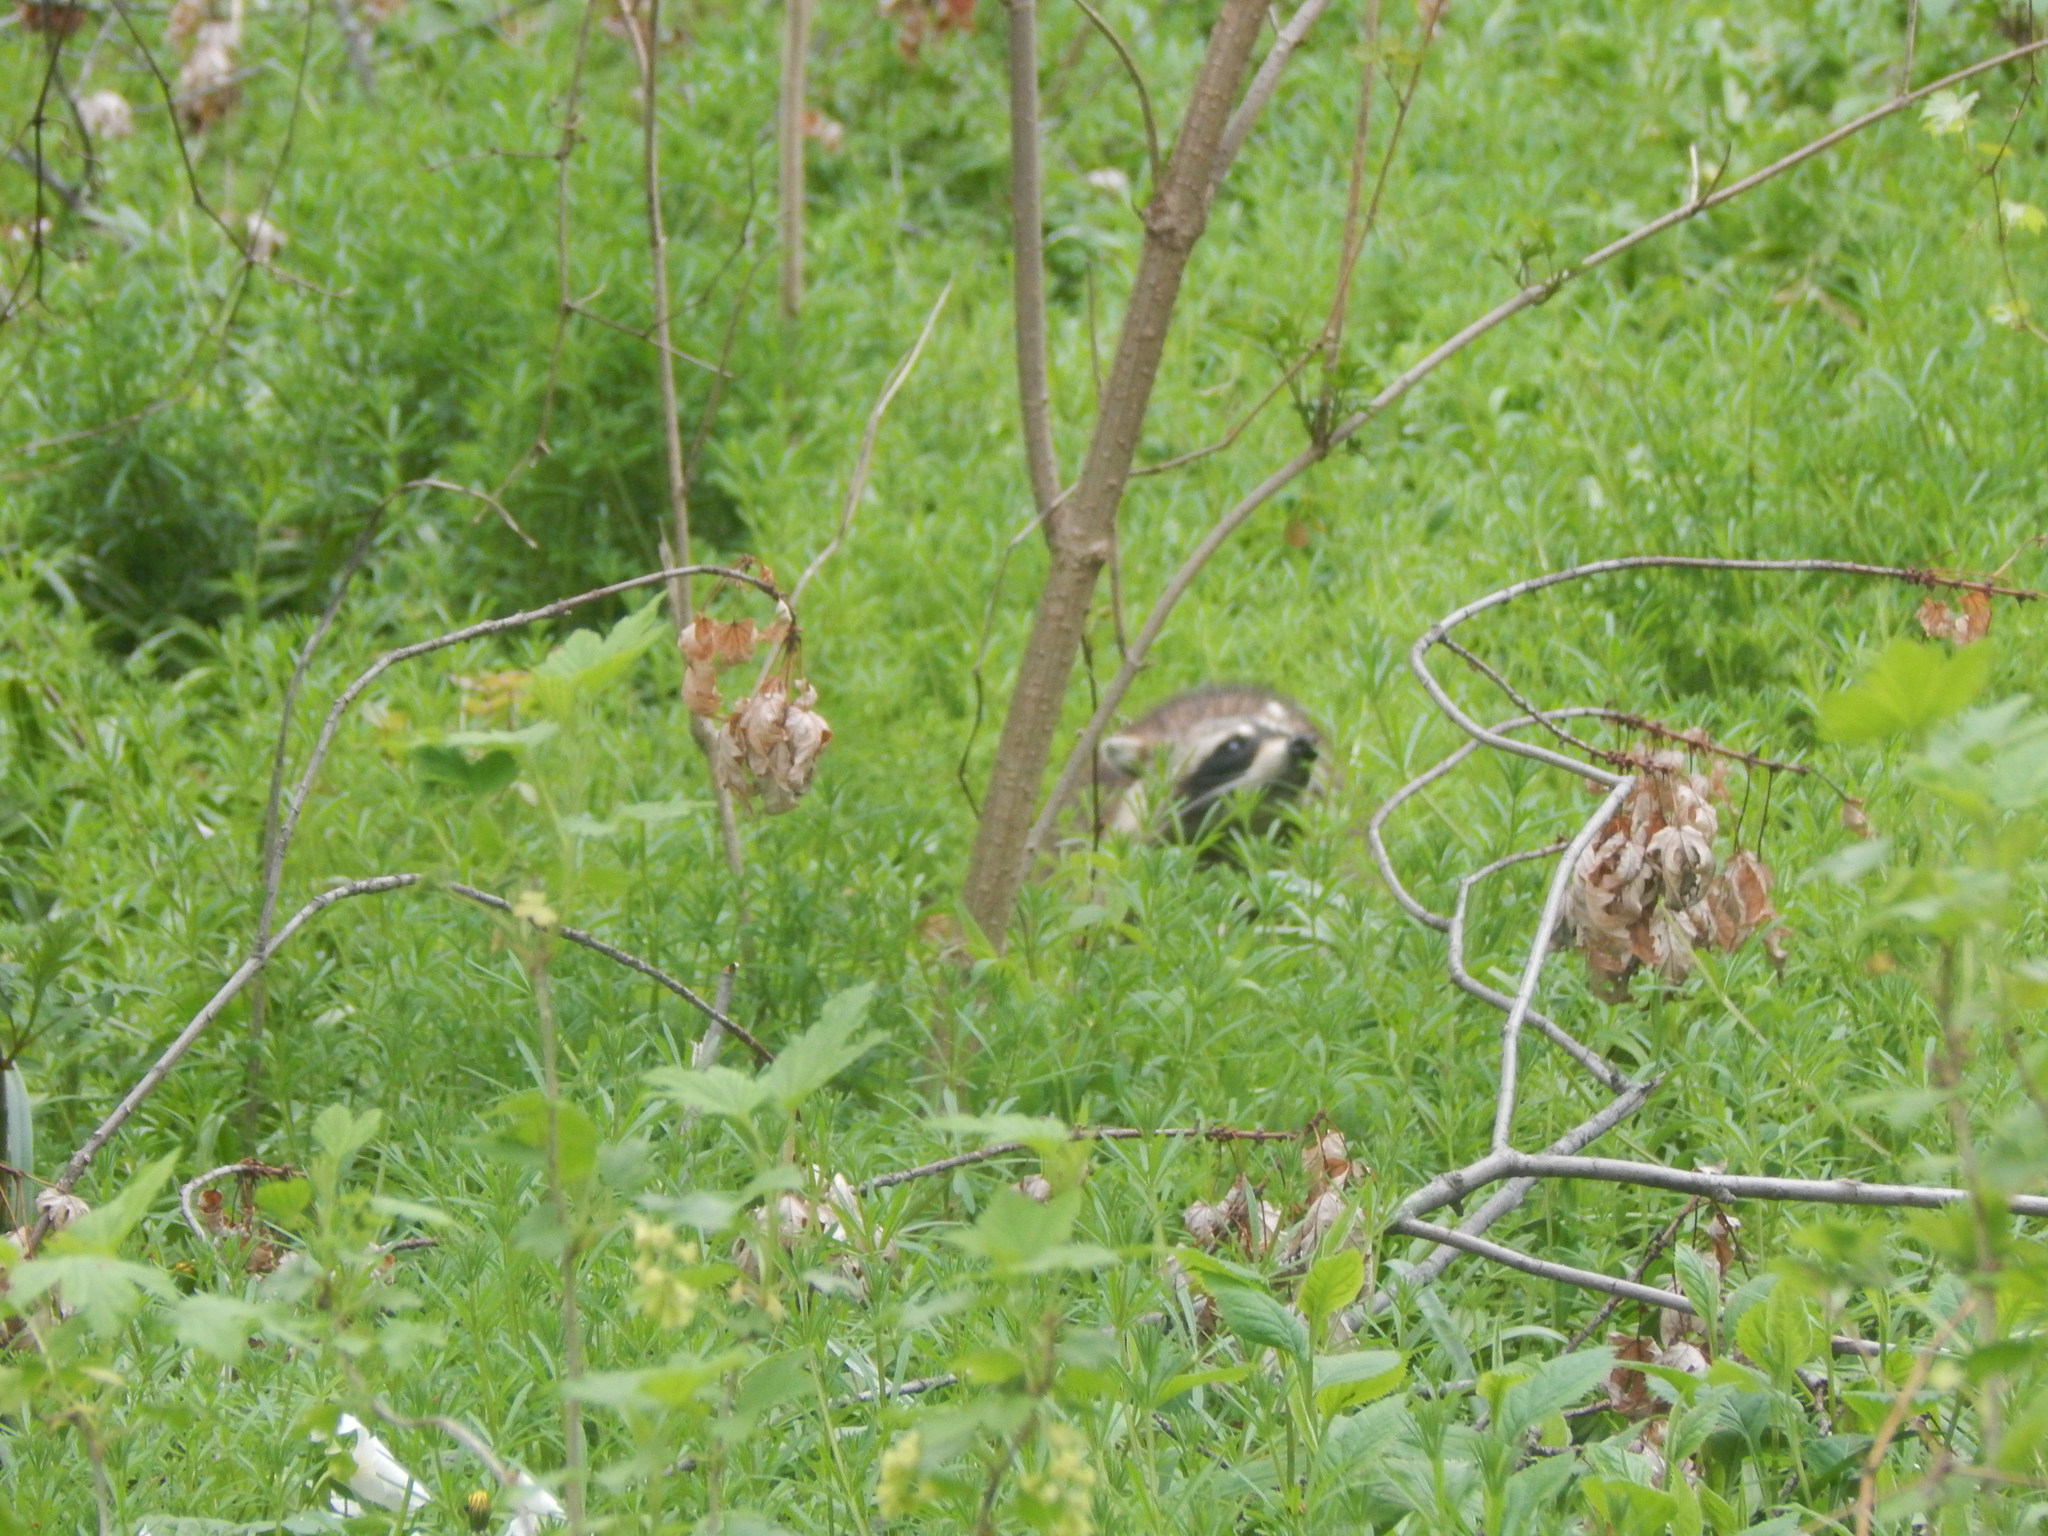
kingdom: Animalia
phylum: Chordata
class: Mammalia
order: Carnivora
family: Procyonidae
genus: Procyon
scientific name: Procyon lotor
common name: Raccoon
